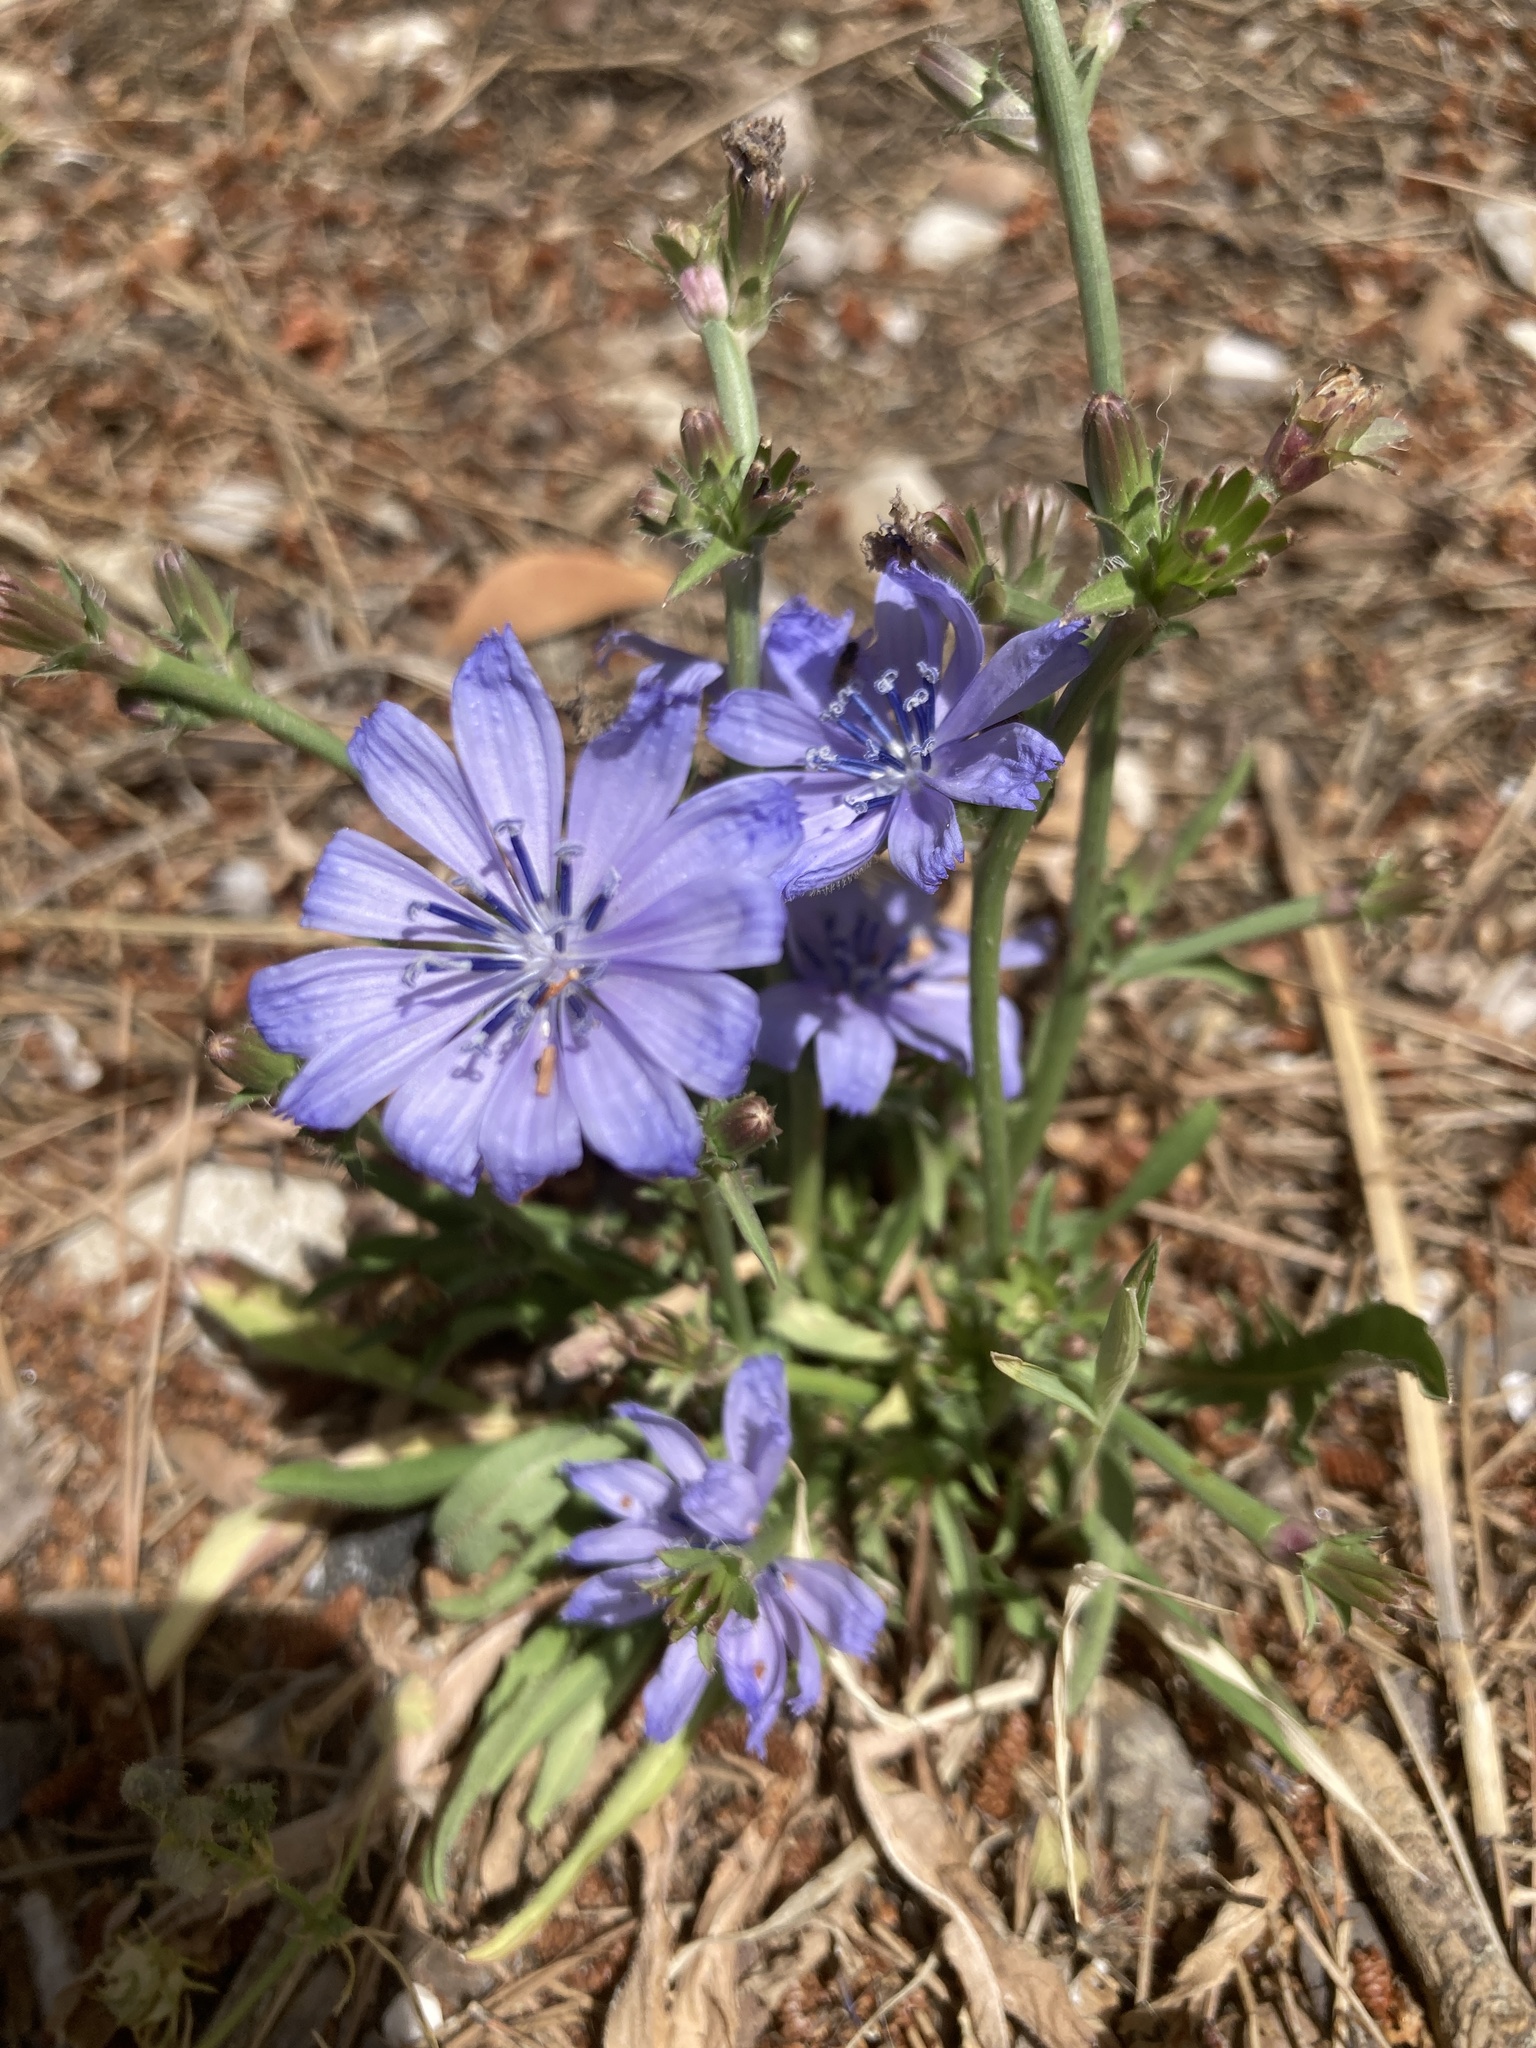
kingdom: Plantae
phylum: Tracheophyta
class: Magnoliopsida
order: Asterales
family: Asteraceae
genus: Cichorium
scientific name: Cichorium intybus
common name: Chicory
